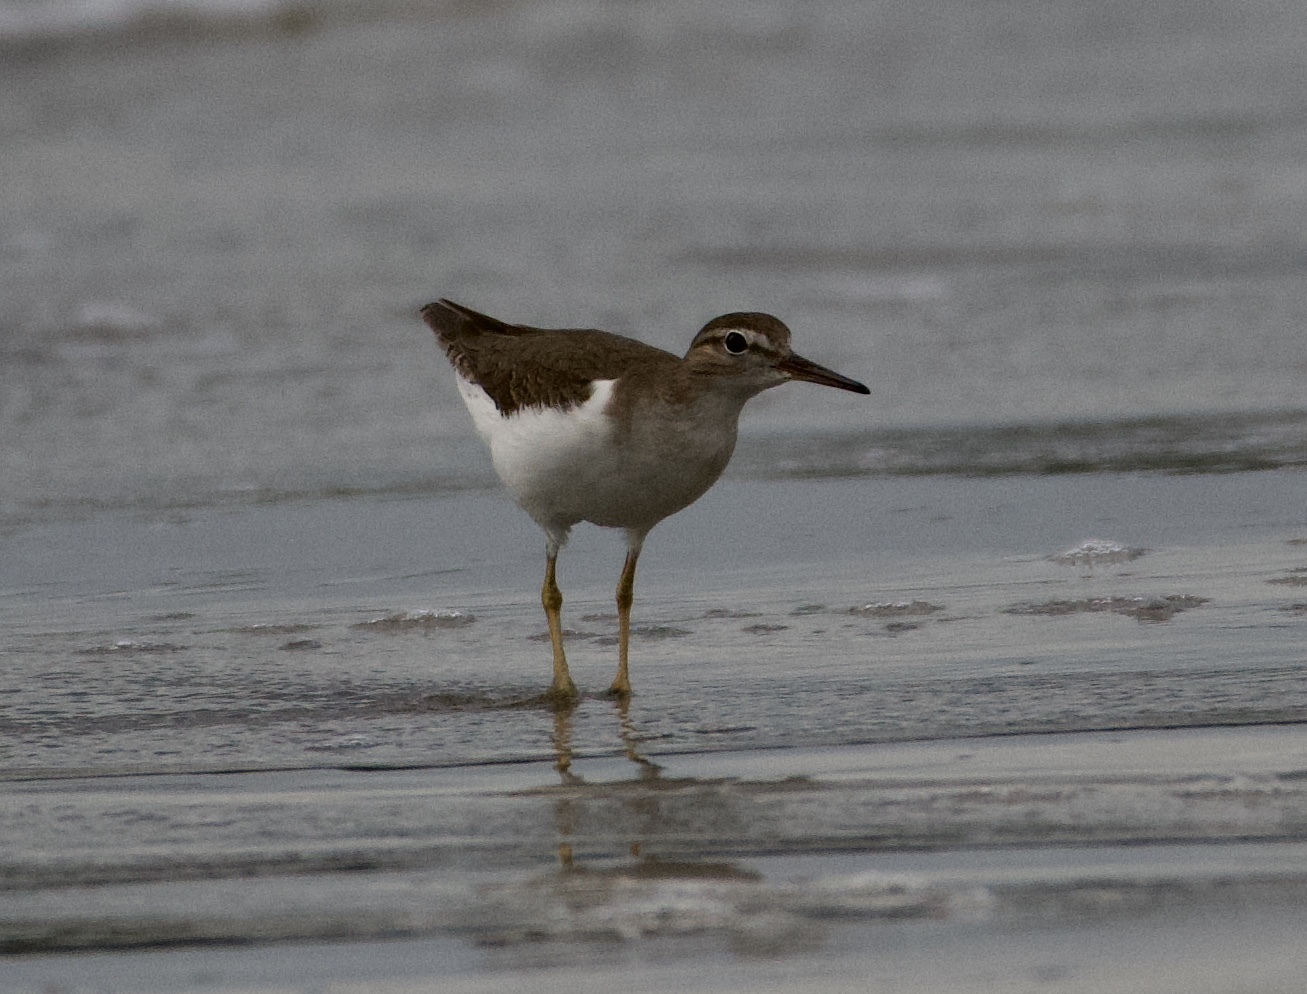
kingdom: Animalia
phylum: Chordata
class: Aves
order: Charadriiformes
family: Scolopacidae
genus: Actitis
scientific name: Actitis macularius
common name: Spotted sandpiper
